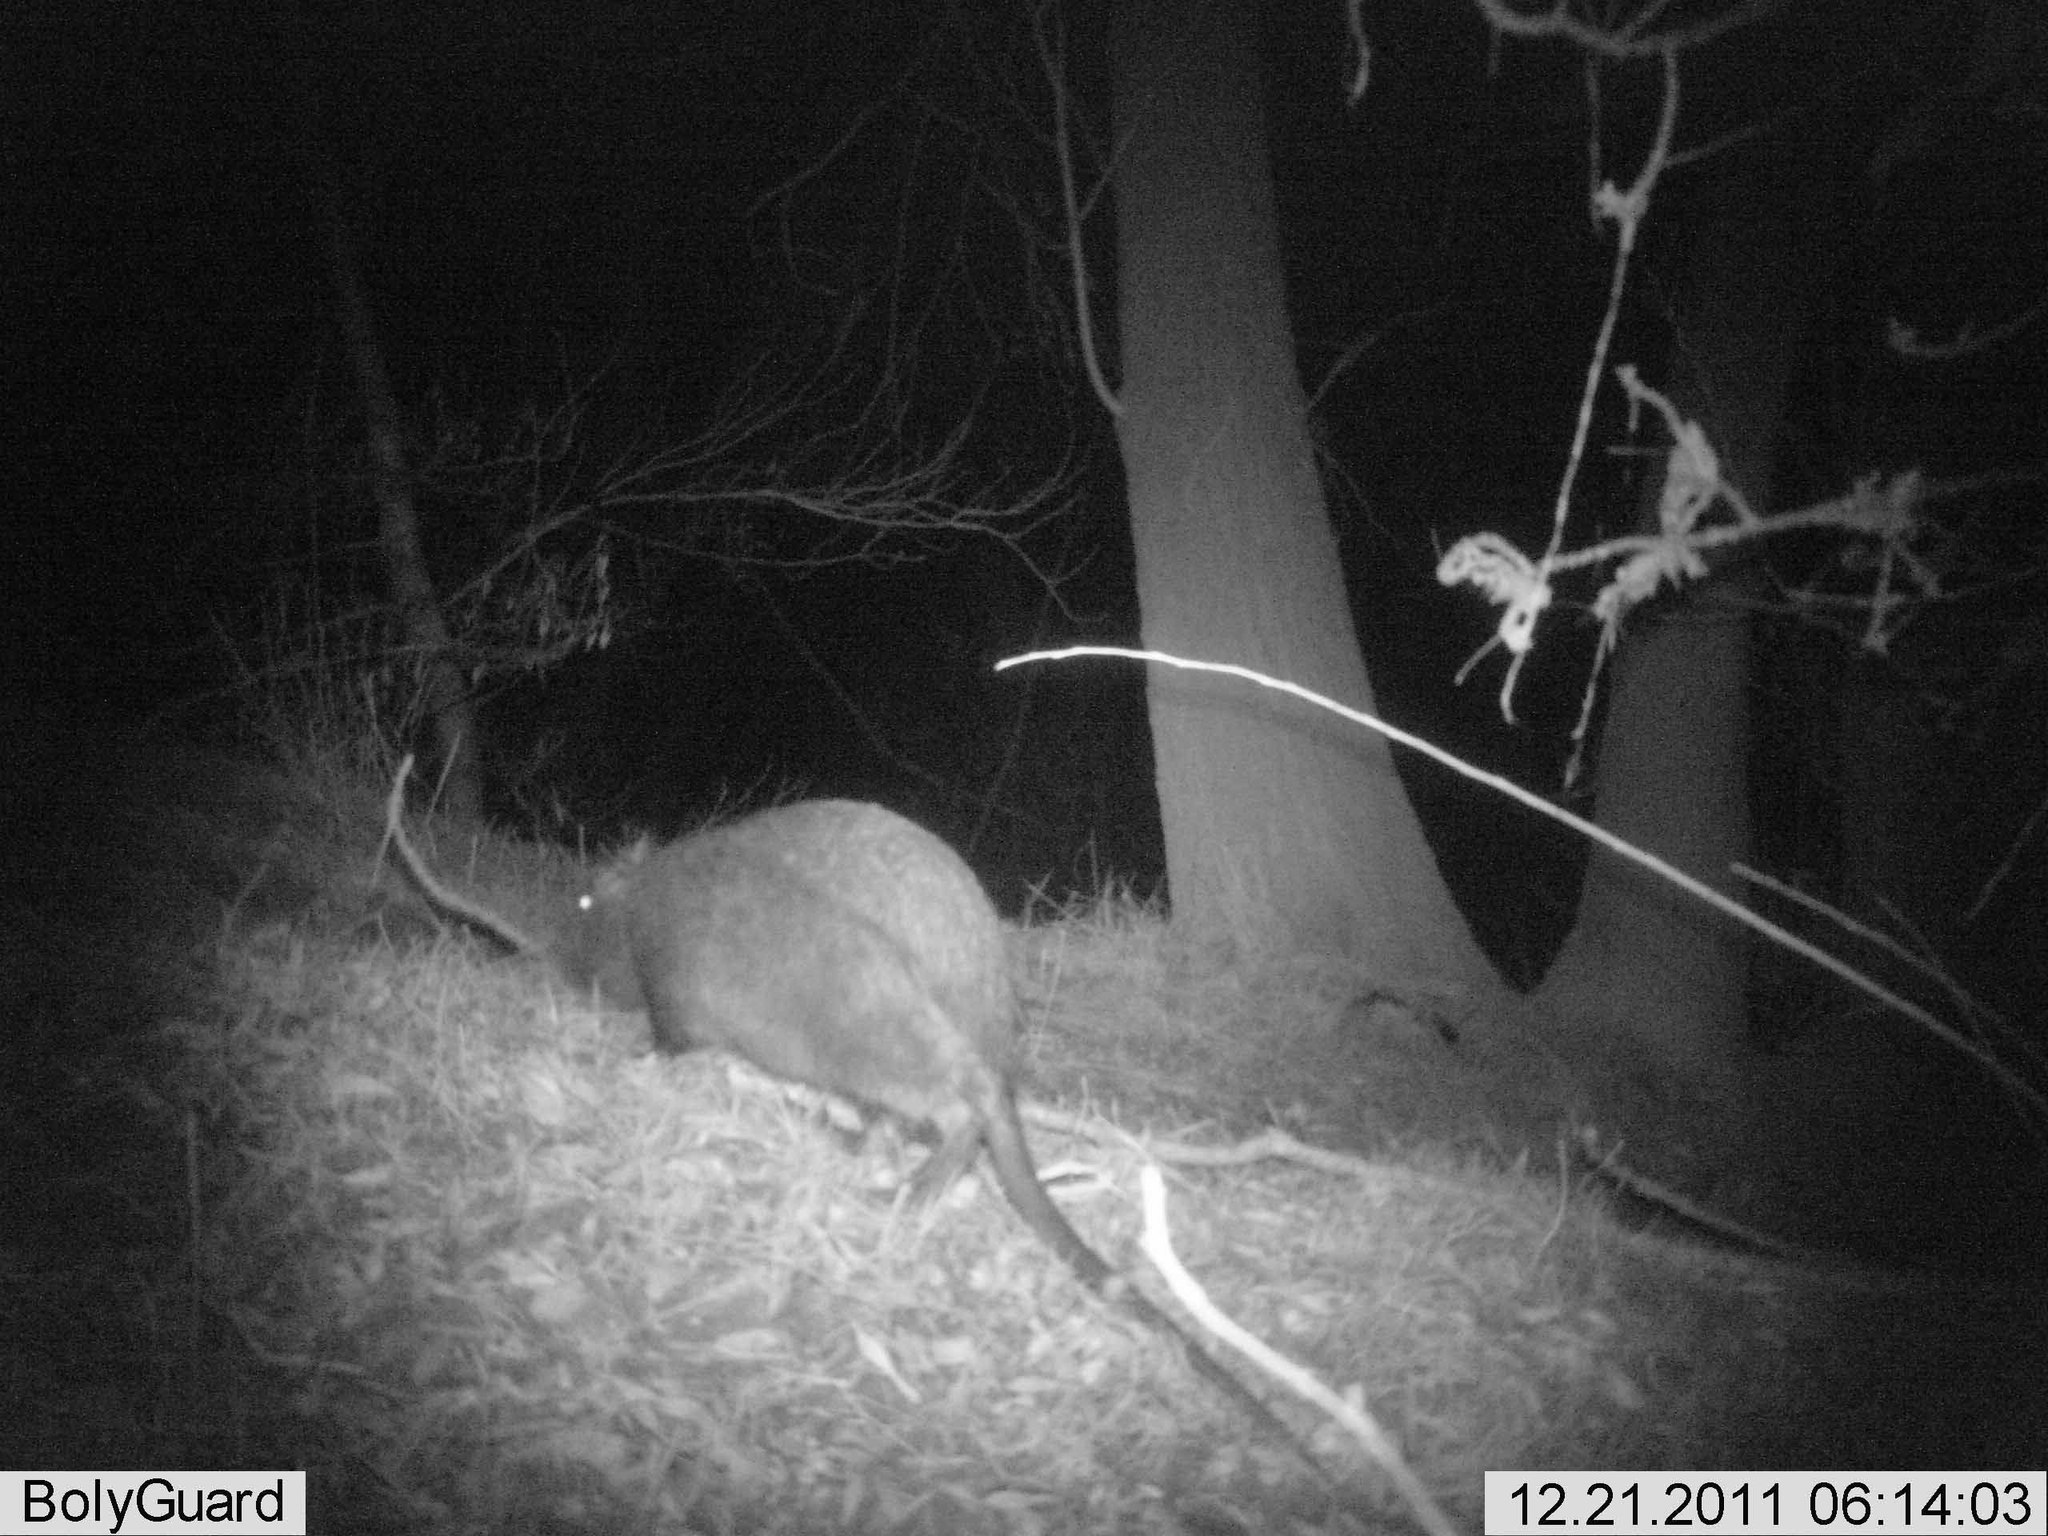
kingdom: Animalia
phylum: Chordata
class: Mammalia
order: Rodentia
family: Myocastoridae
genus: Myocastor
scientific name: Myocastor coypus
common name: Coypu
